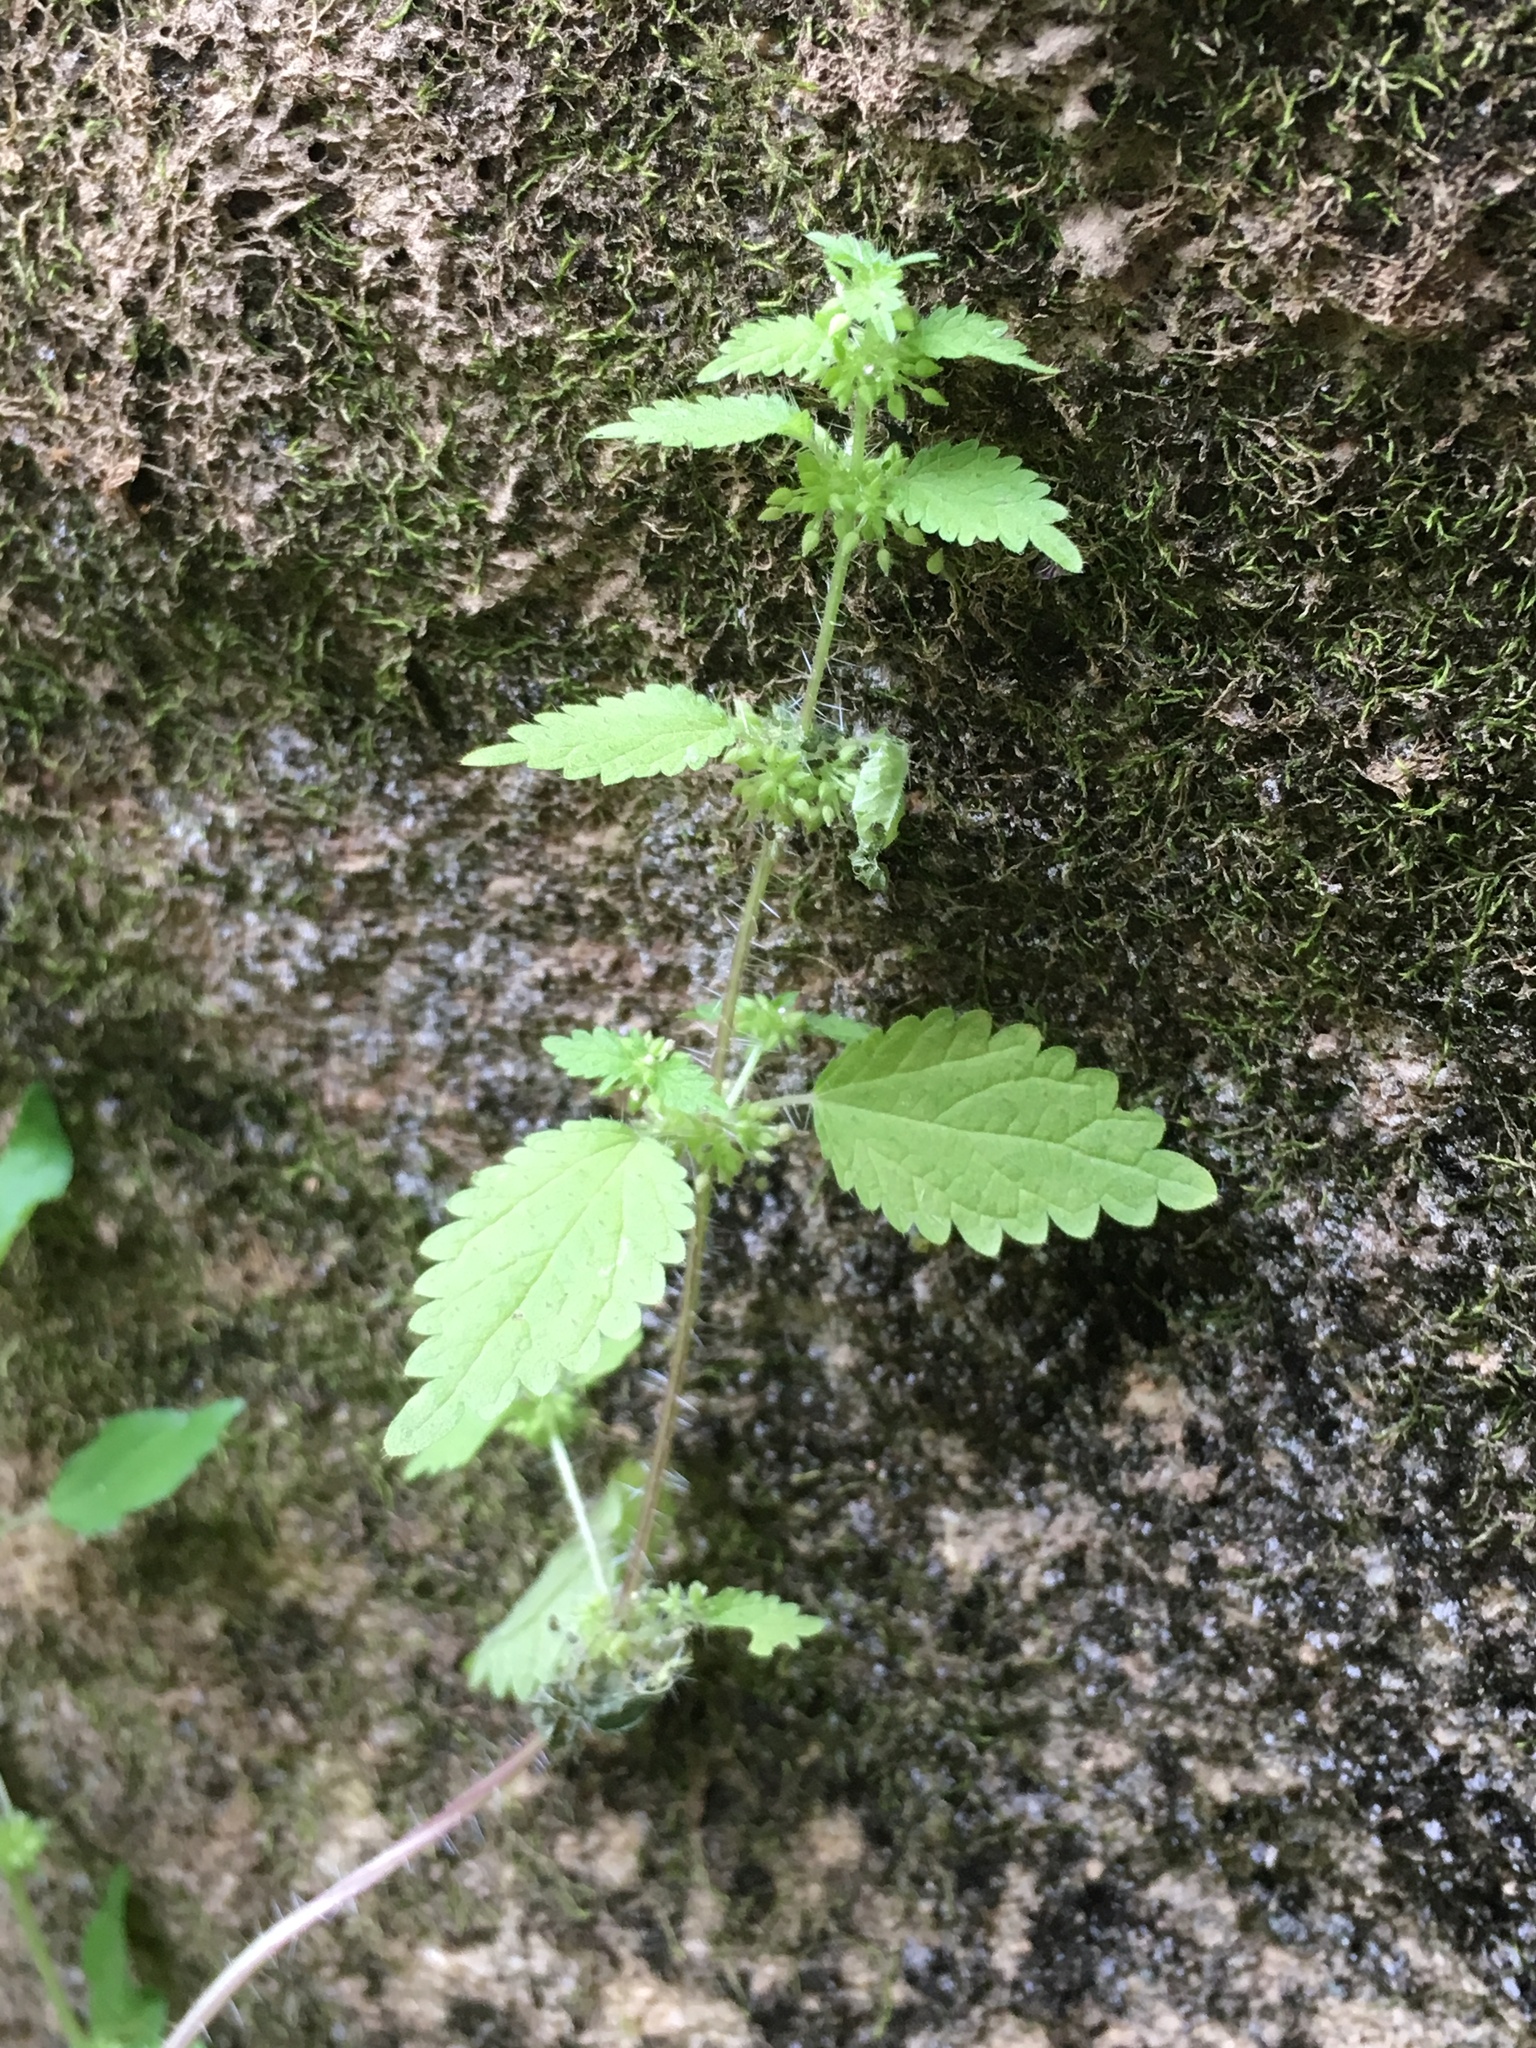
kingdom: Plantae
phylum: Tracheophyta
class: Magnoliopsida
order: Rosales
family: Urticaceae
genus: Hesperocnide
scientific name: Hesperocnide tenella
